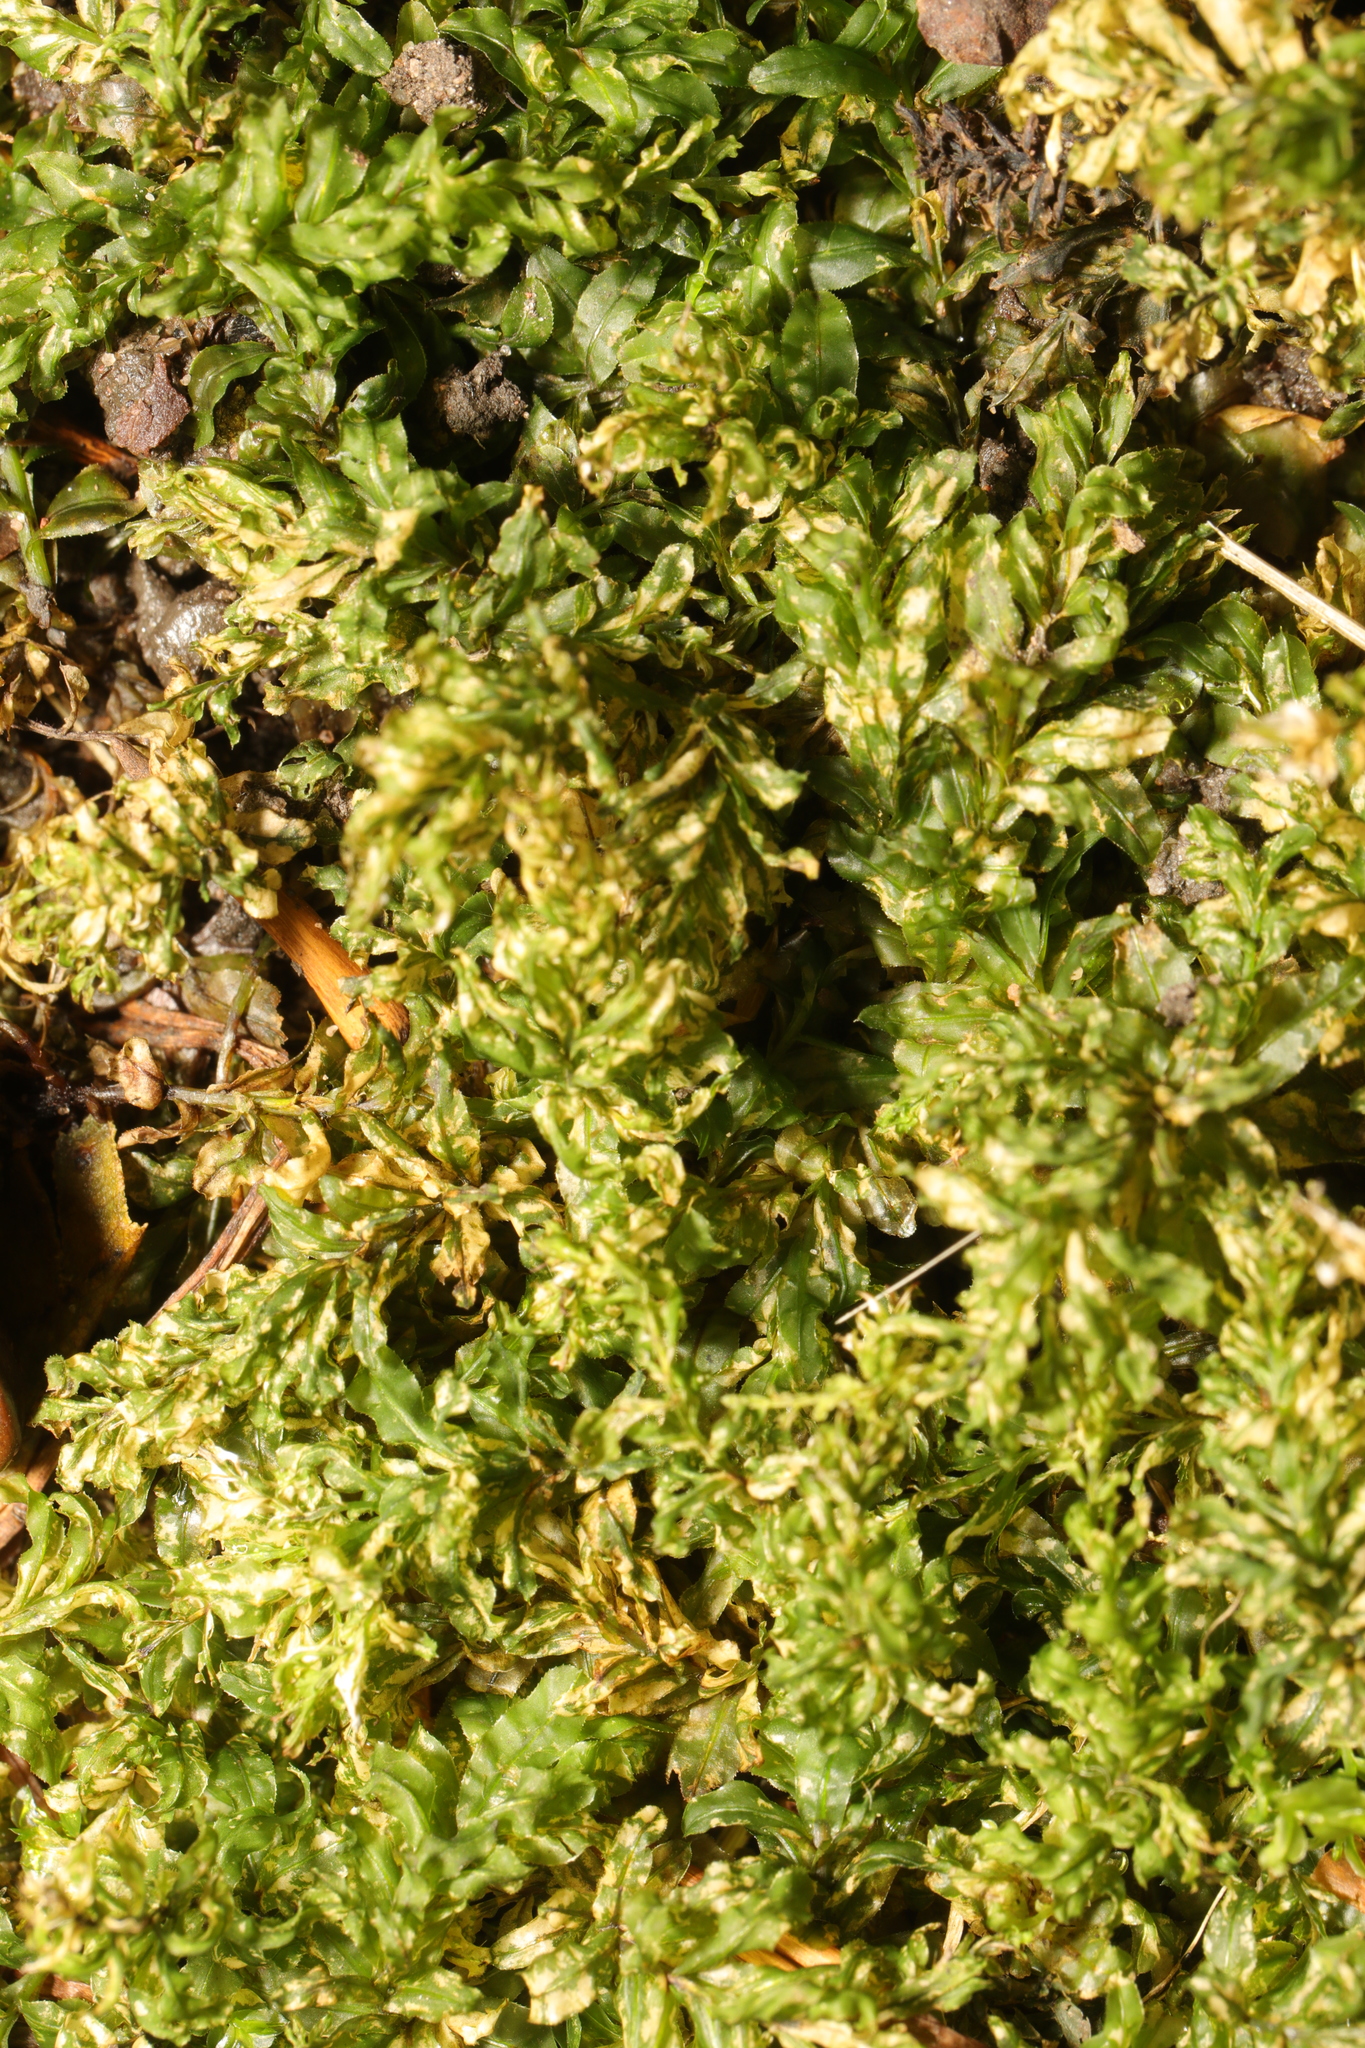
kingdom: Plantae
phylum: Bryophyta
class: Bryopsida
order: Bryales
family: Mniaceae
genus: Plagiomnium
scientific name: Plagiomnium undulatum
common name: Hart's-tongue thyme-moss
